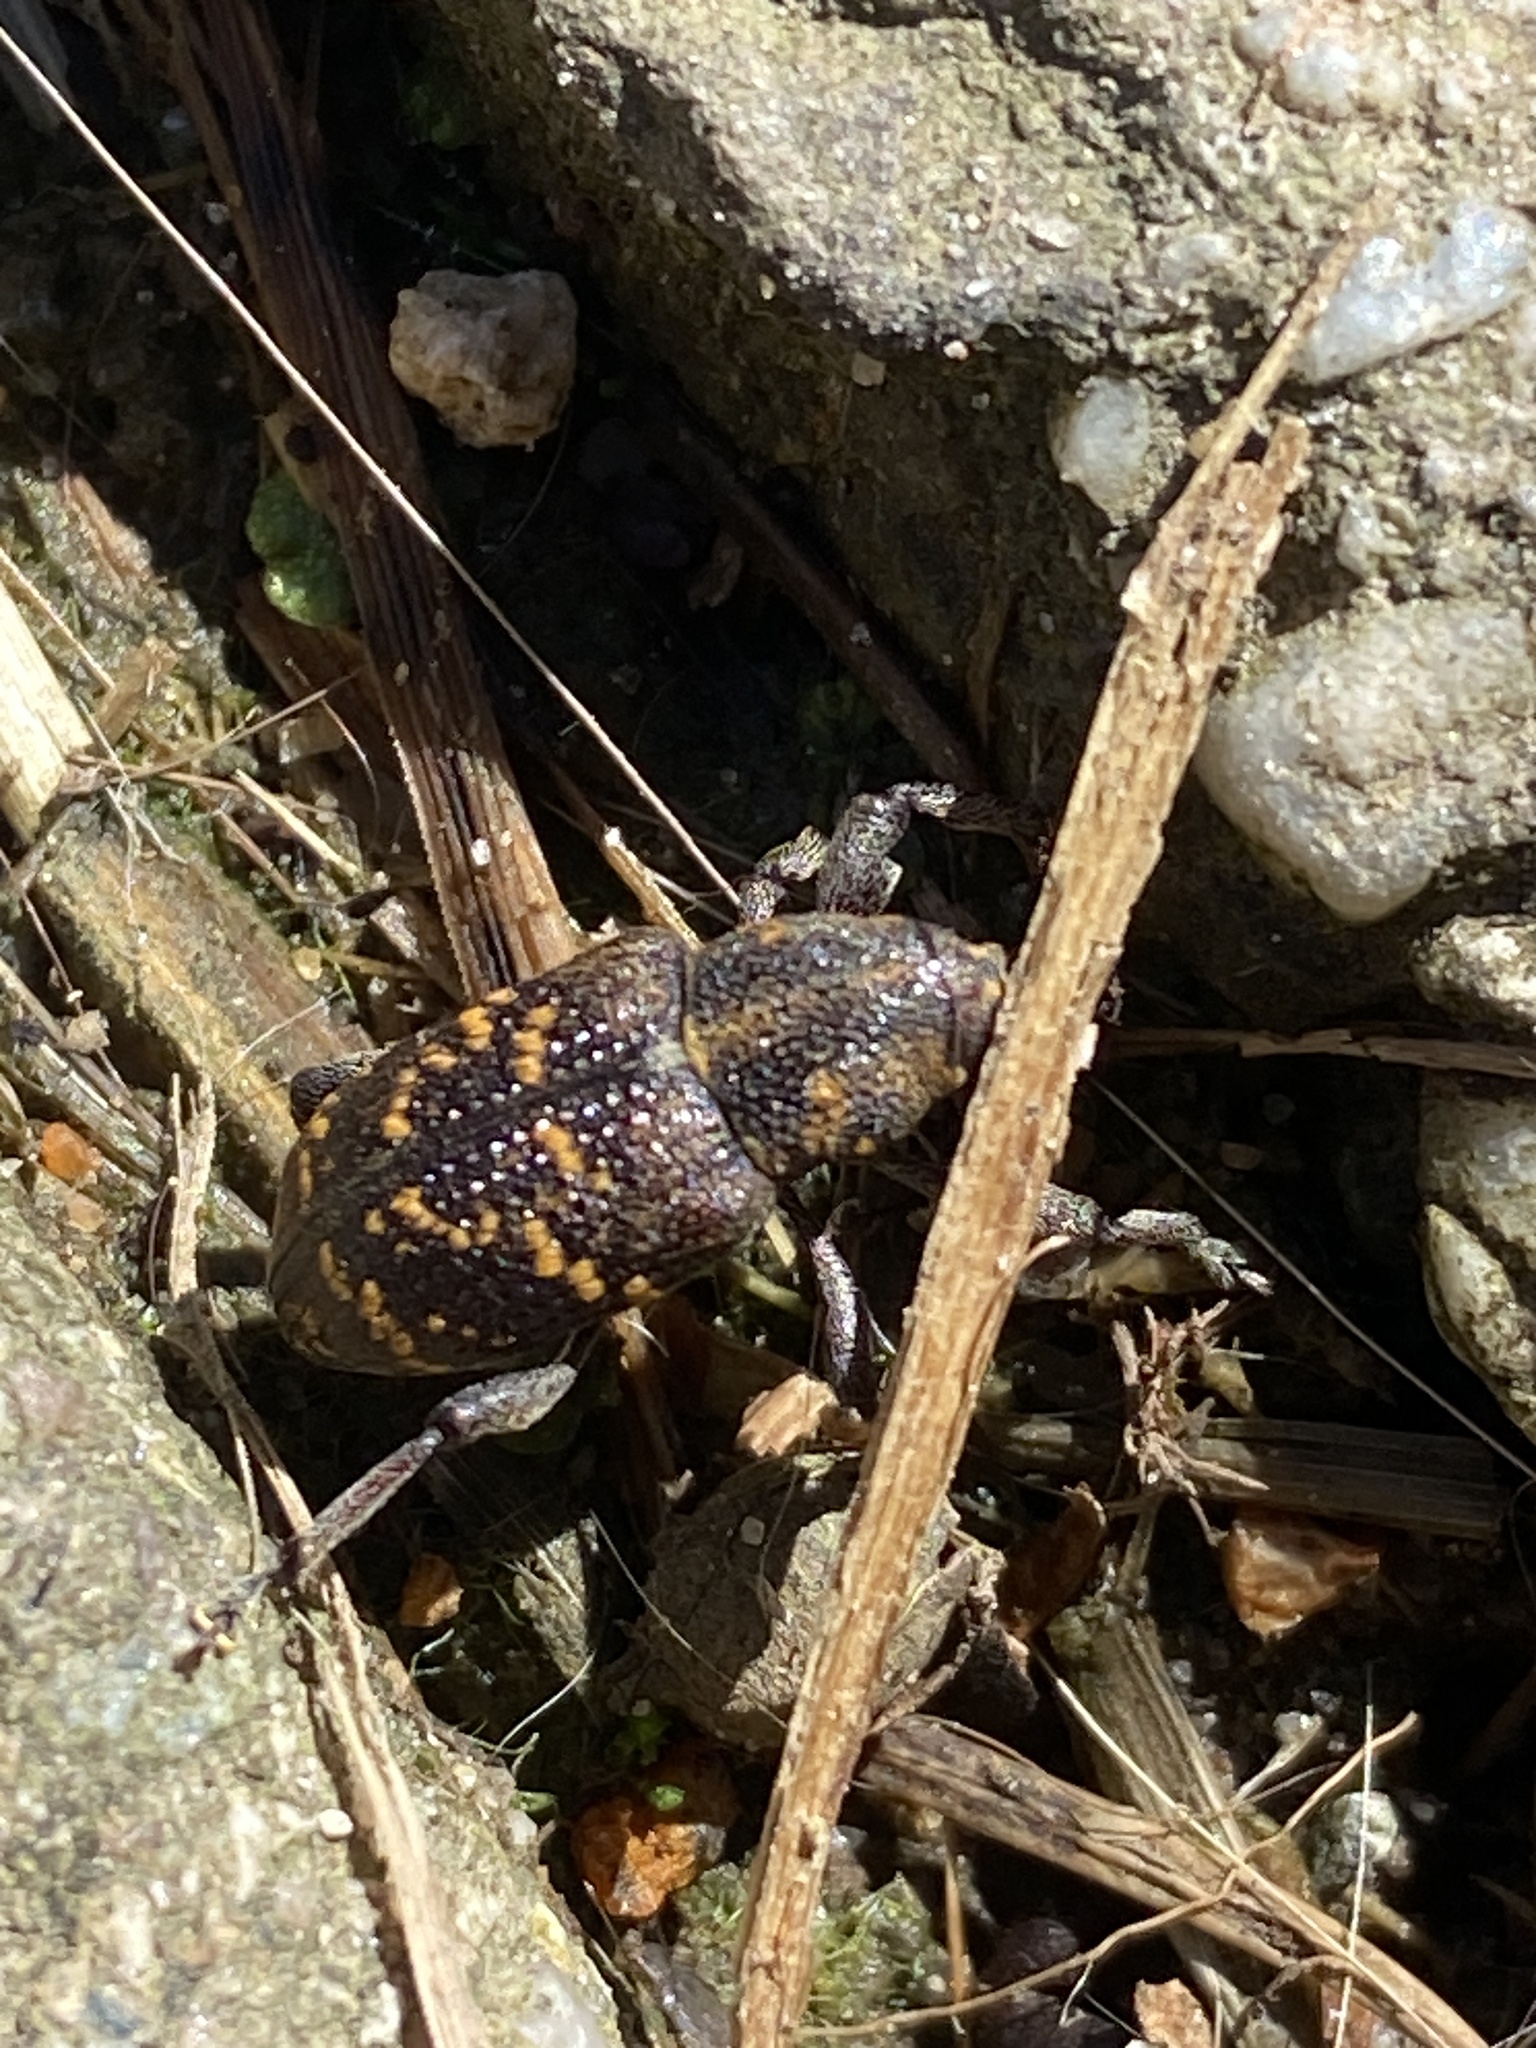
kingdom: Animalia
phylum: Arthropoda
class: Insecta
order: Coleoptera
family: Curculionidae
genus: Hylobius
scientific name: Hylobius abietis
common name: Large pine weevil
